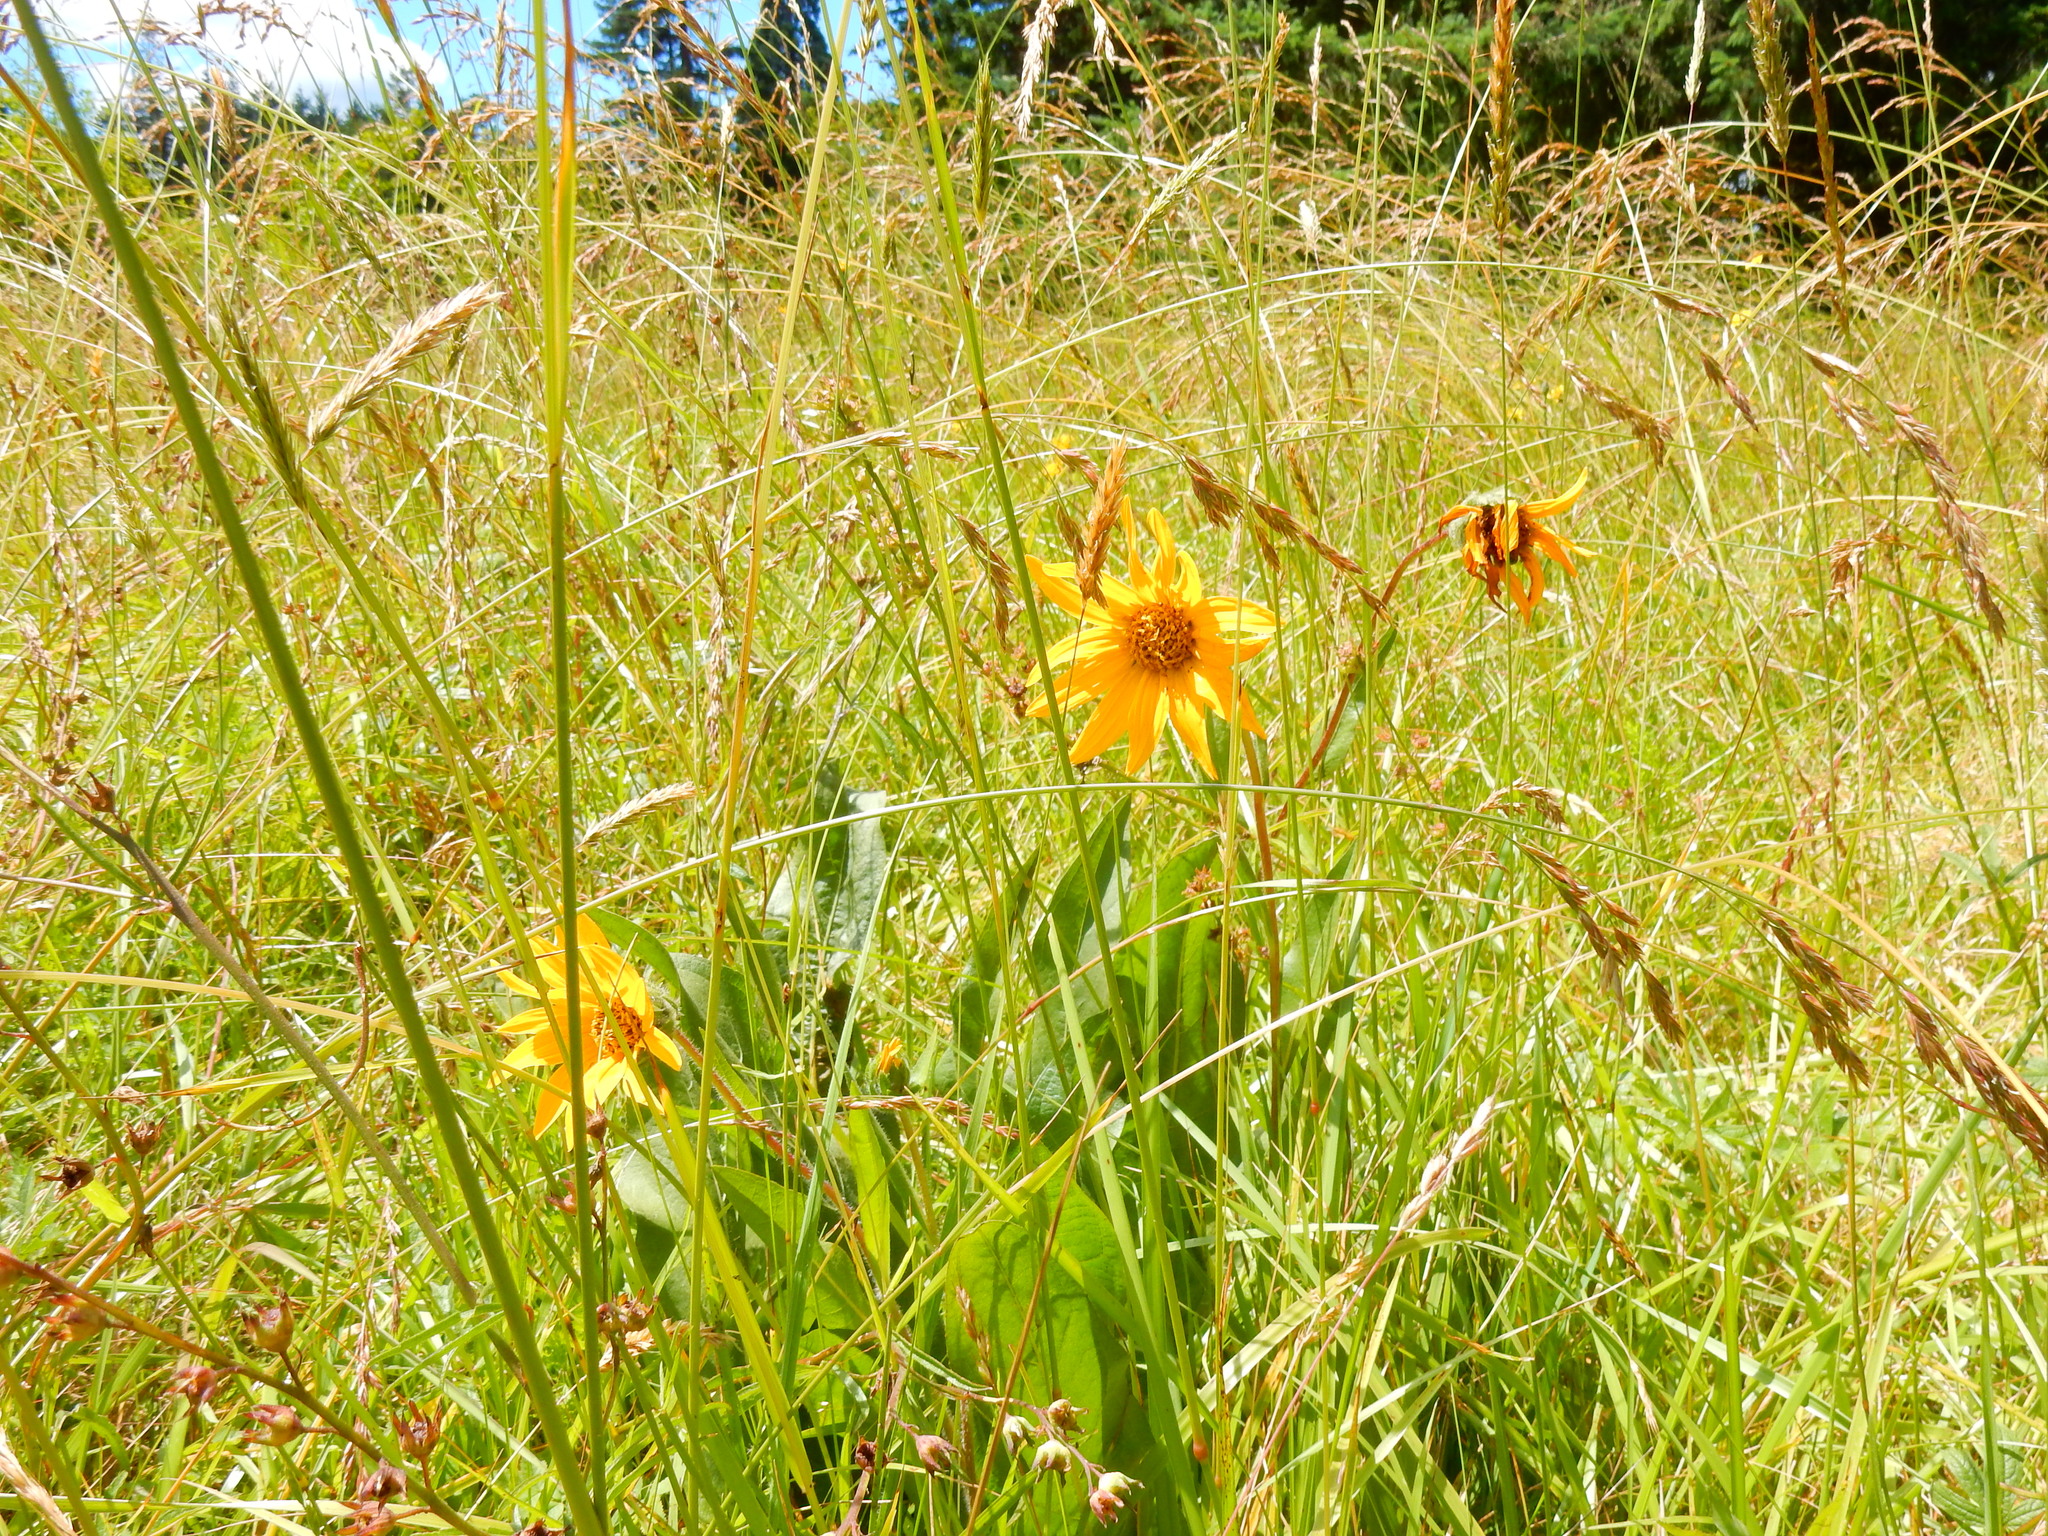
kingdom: Plantae
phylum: Tracheophyta
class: Magnoliopsida
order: Asterales
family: Asteraceae
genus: Wyethia
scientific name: Wyethia angustifolia
